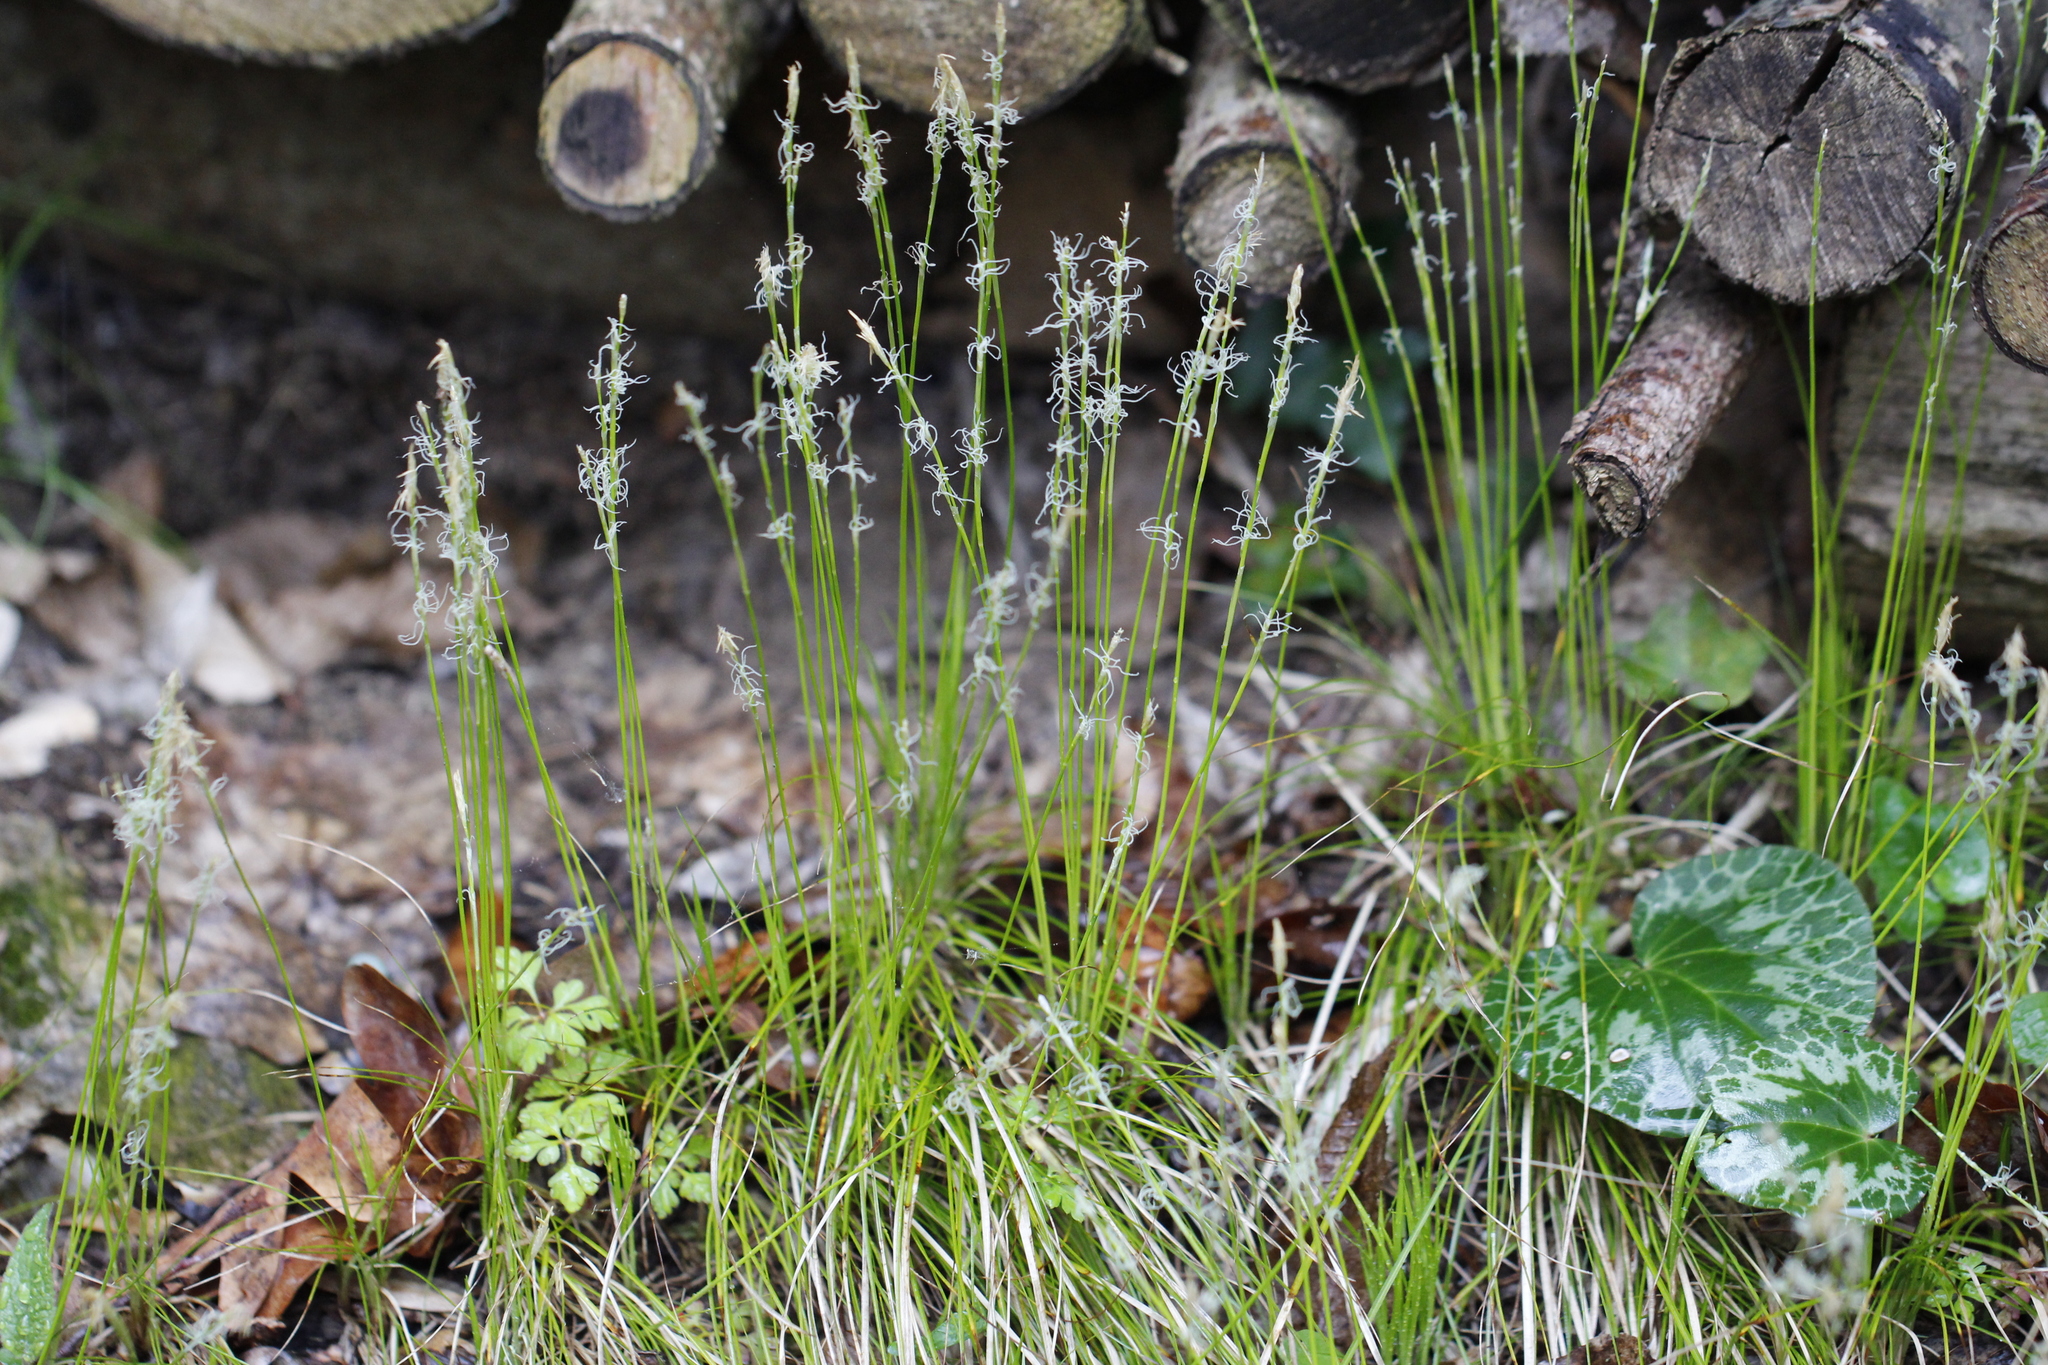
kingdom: Plantae
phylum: Tracheophyta
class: Liliopsida
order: Poales
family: Cyperaceae
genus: Carex
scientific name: Carex alba
